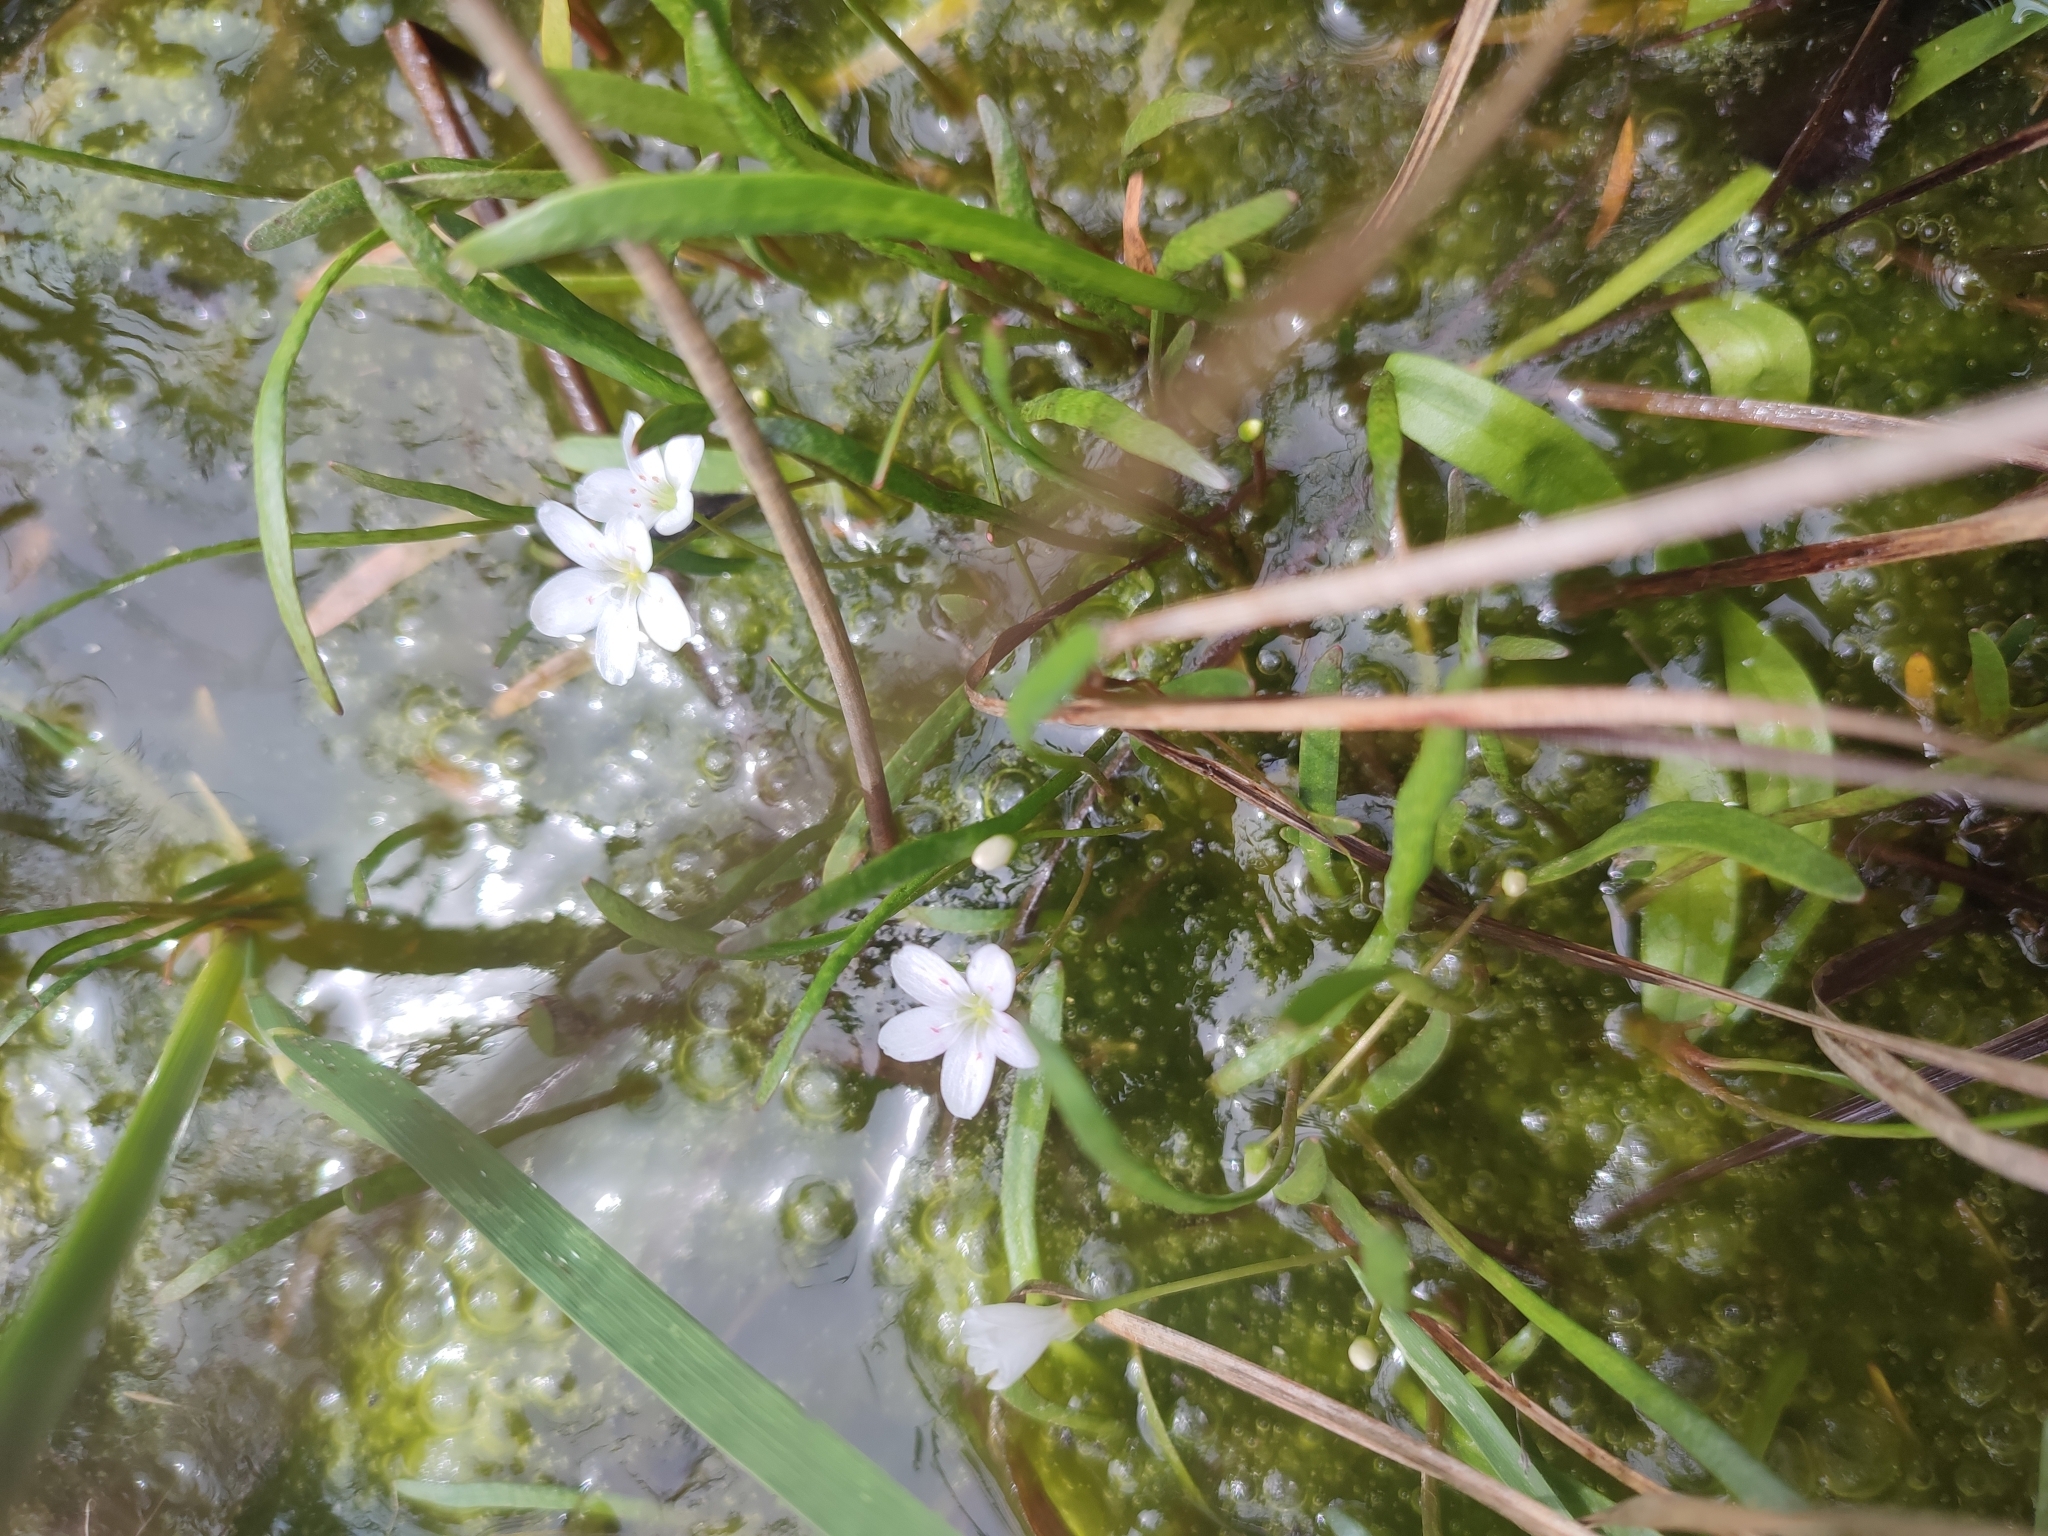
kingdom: Plantae
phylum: Tracheophyta
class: Magnoliopsida
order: Caryophyllales
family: Montiaceae
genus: Montia
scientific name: Montia australasica
